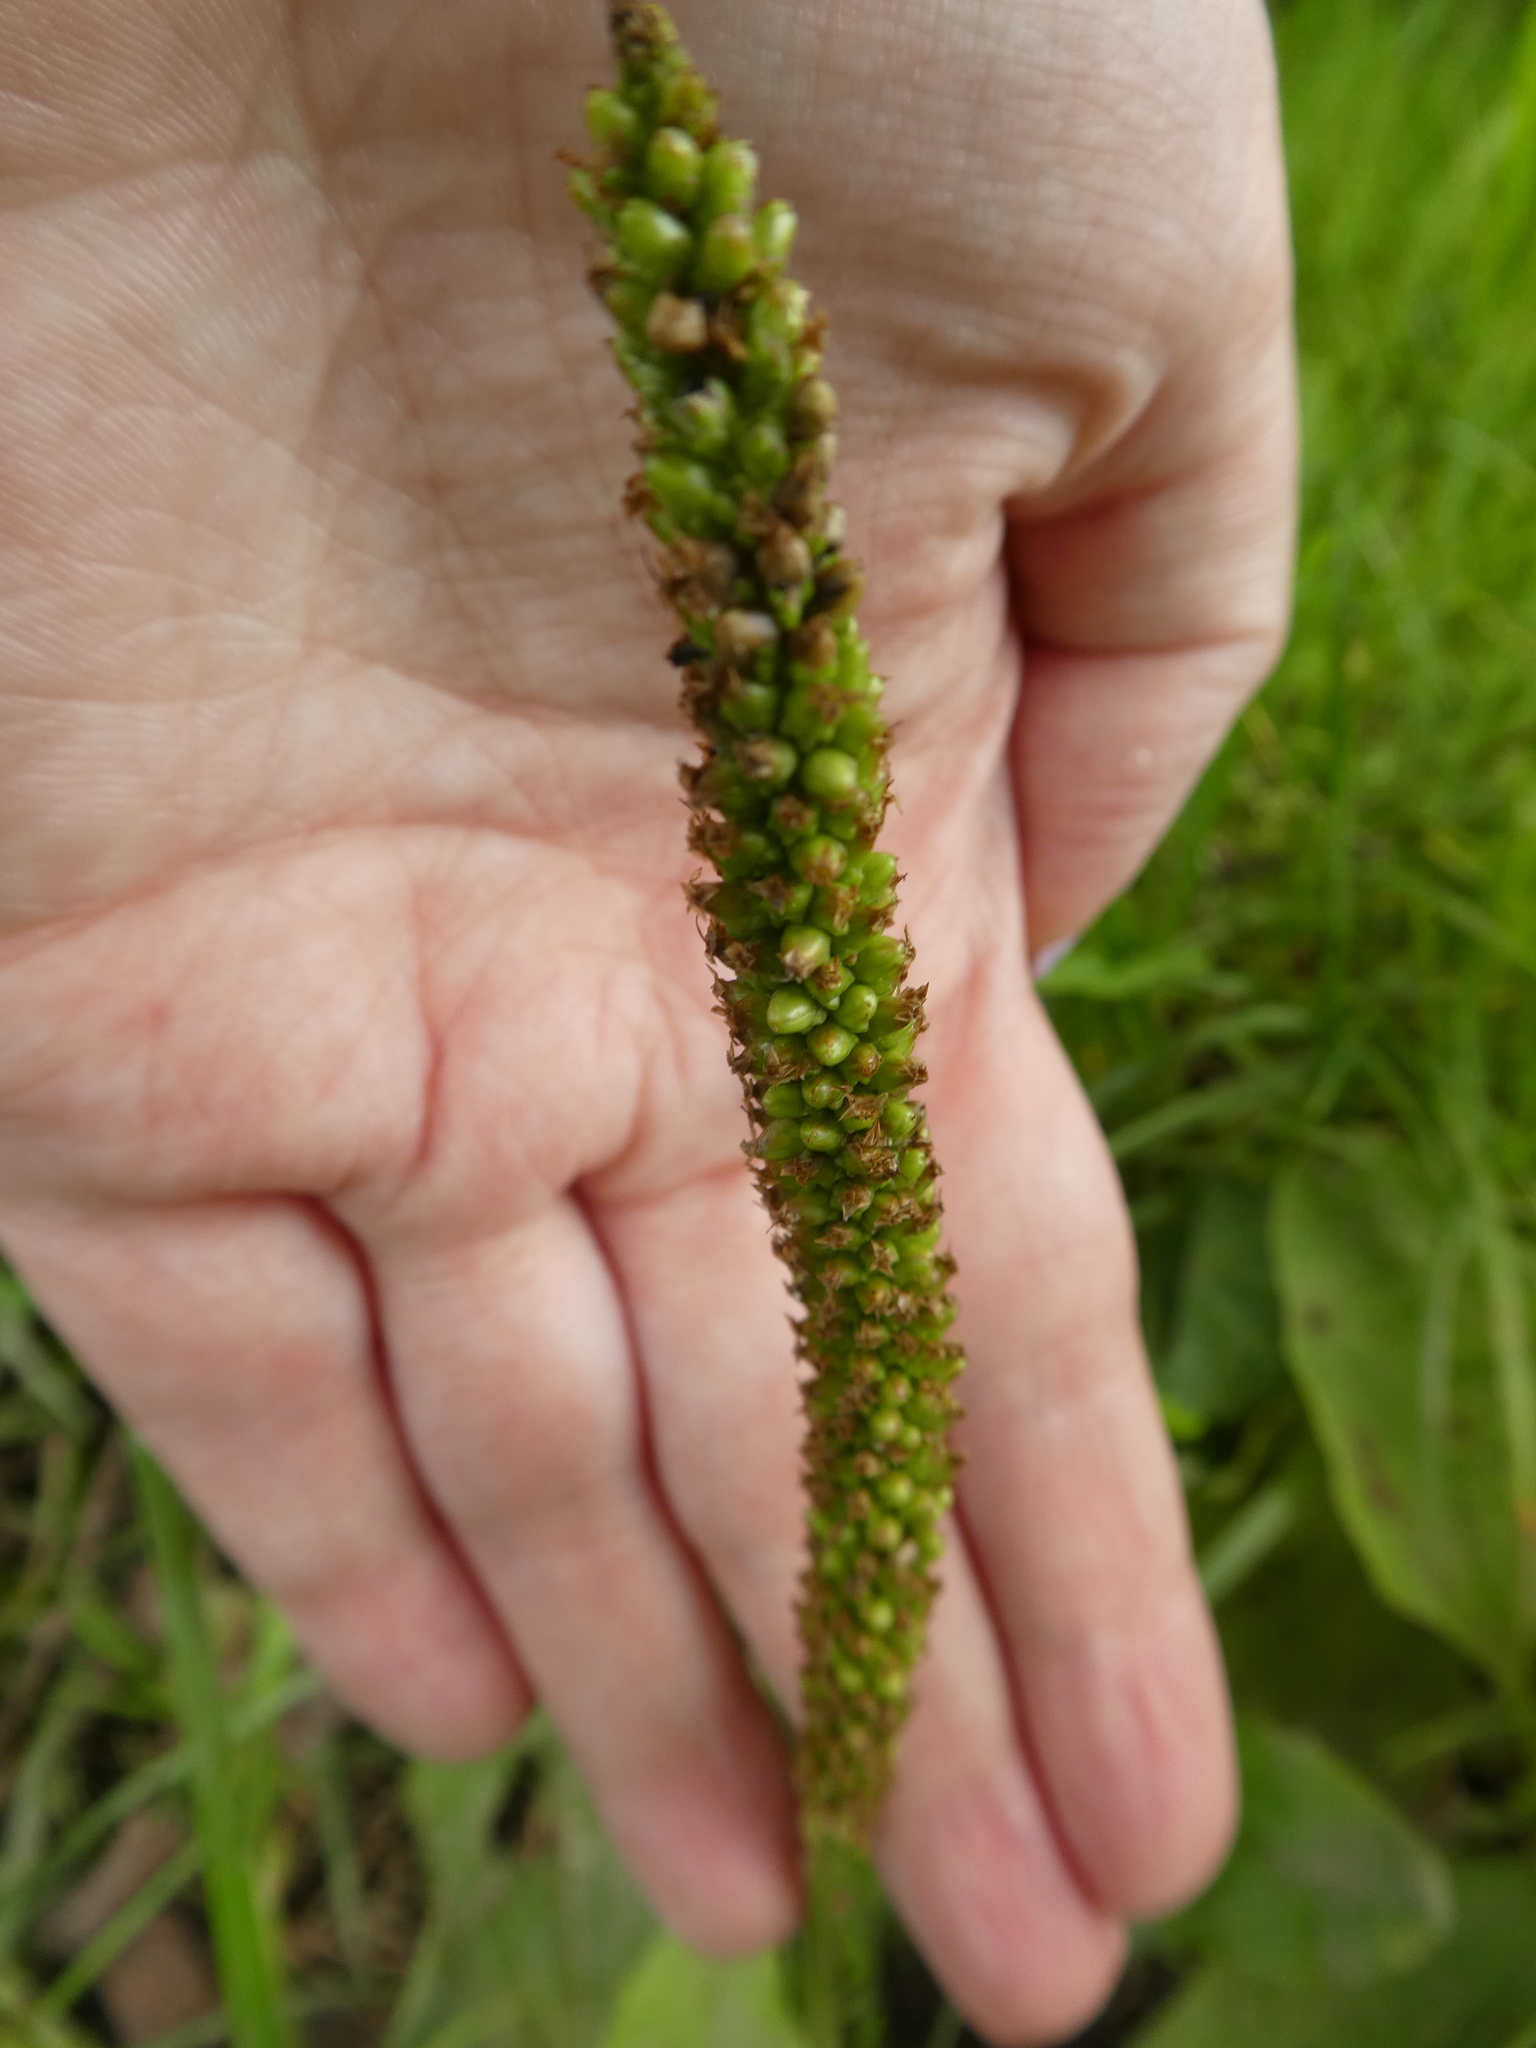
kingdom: Plantae
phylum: Tracheophyta
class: Magnoliopsida
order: Lamiales
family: Plantaginaceae
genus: Plantago
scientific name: Plantago major
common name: Common plantain
